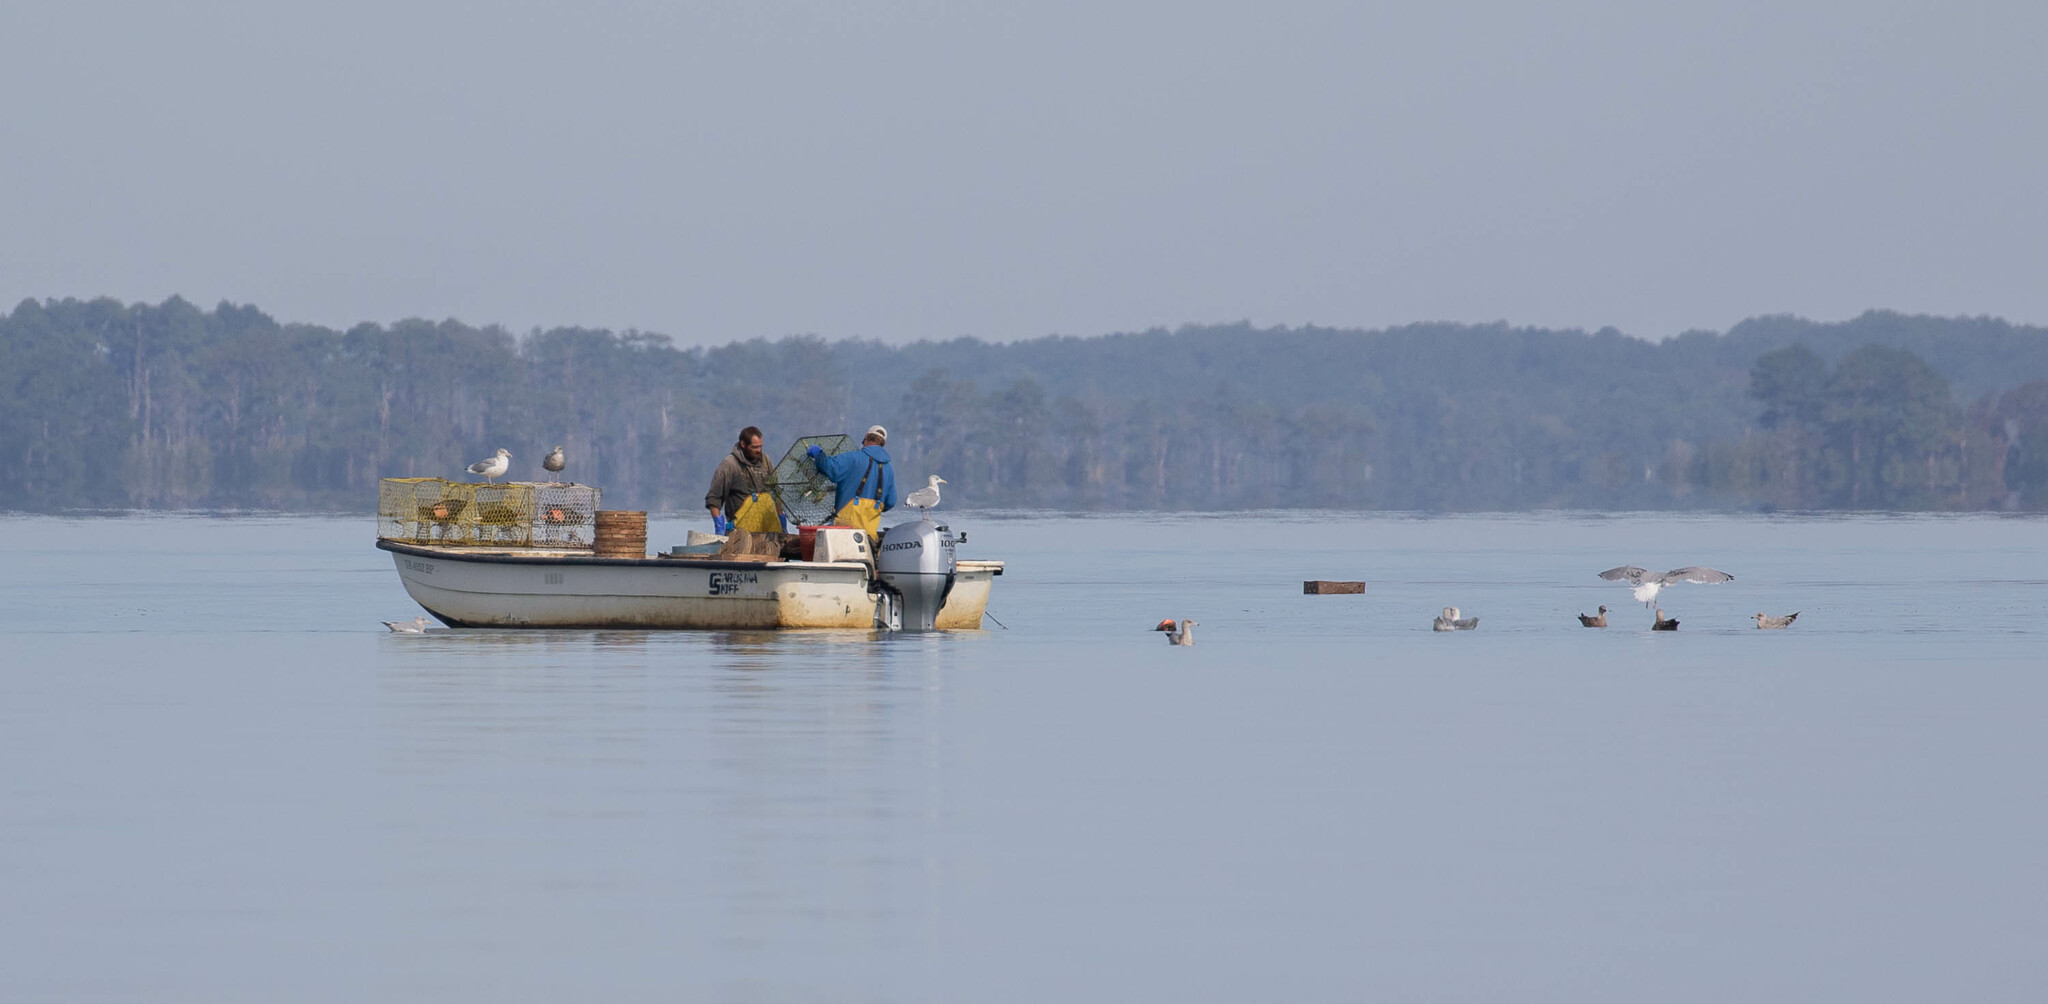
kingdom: Animalia
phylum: Chordata
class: Aves
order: Charadriiformes
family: Laridae
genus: Larus
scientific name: Larus delawarensis
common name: Ring-billed gull
